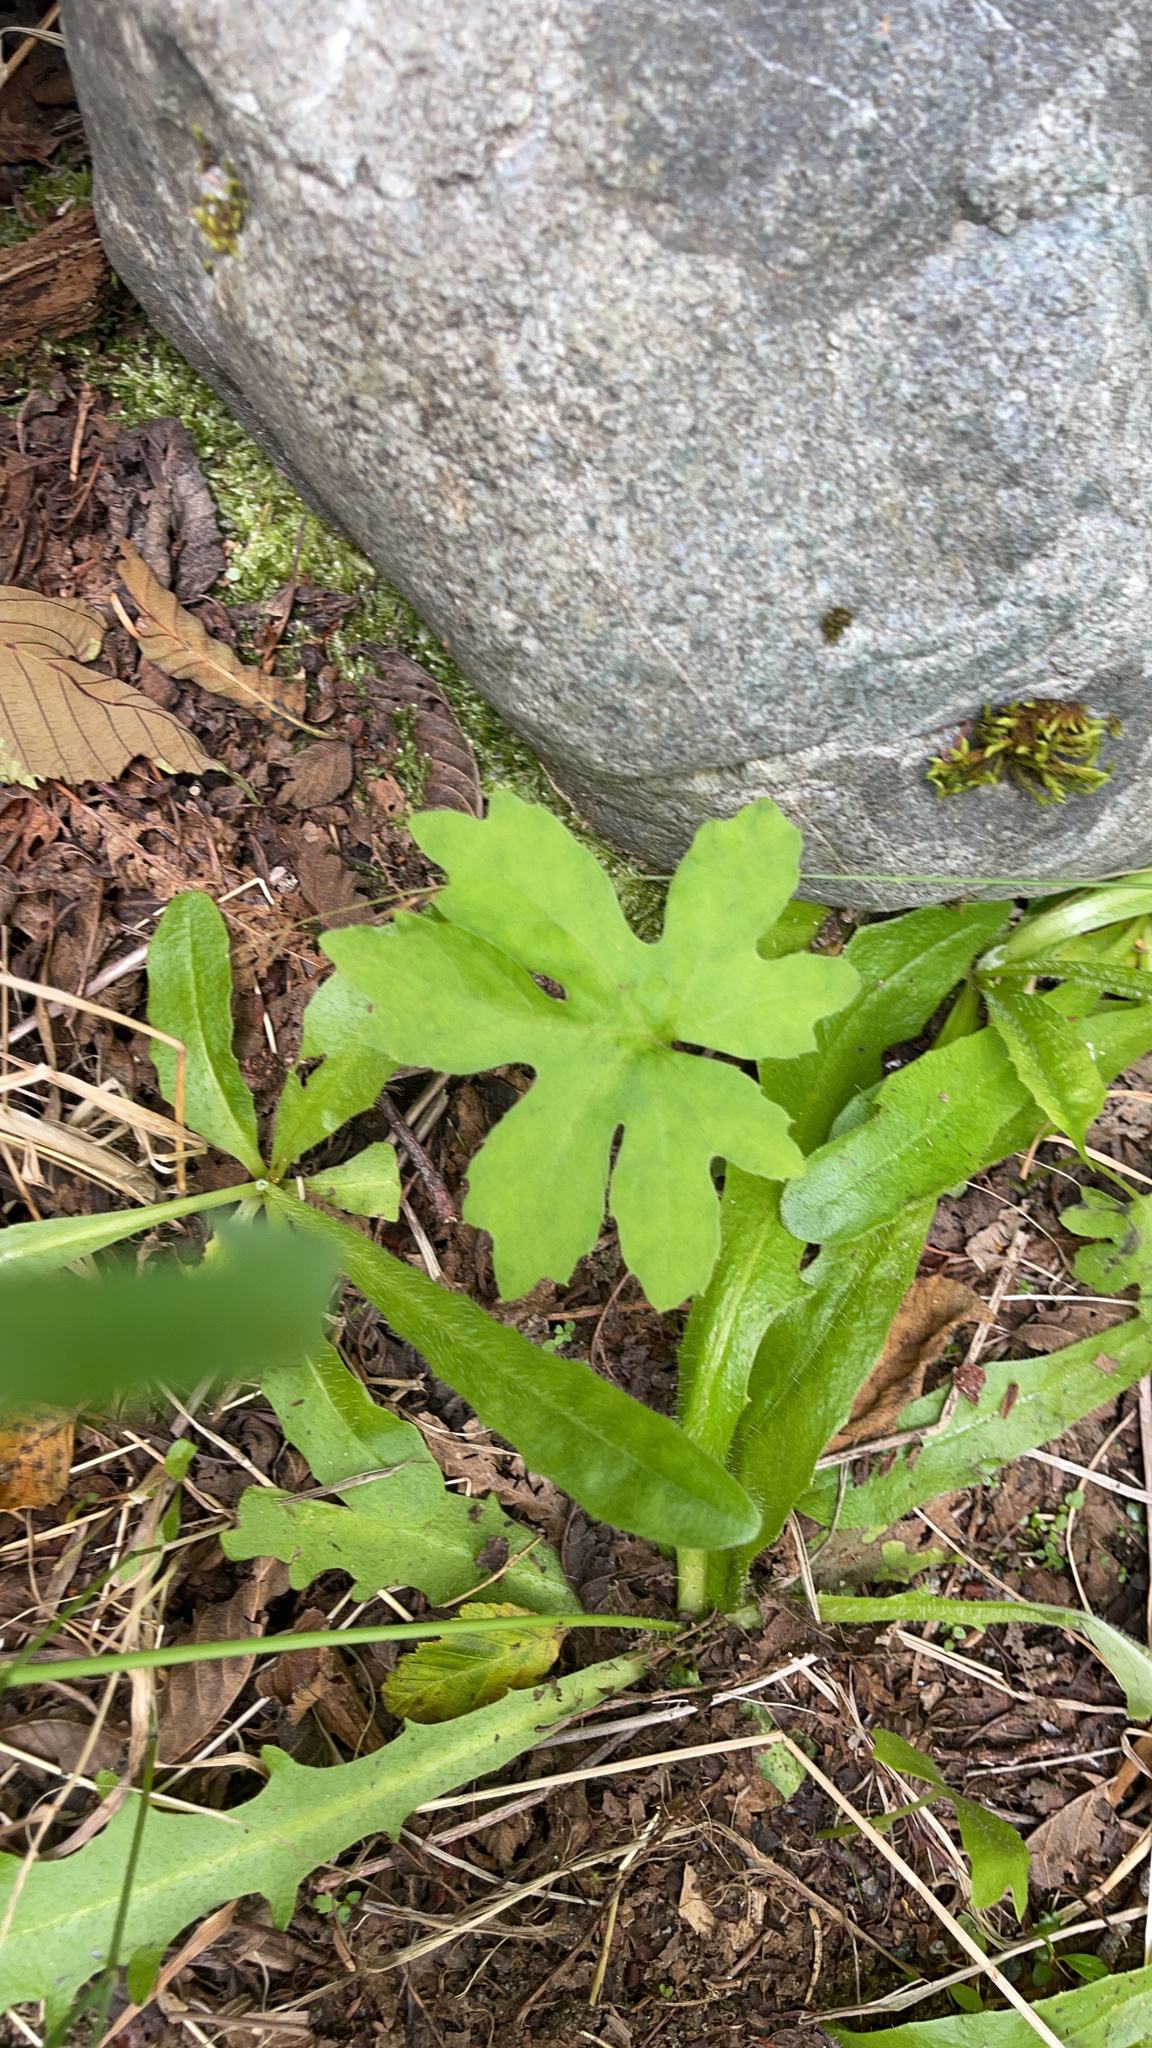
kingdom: Plantae
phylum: Tracheophyta
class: Magnoliopsida
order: Asterales
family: Asteraceae
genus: Petasites
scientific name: Petasites frigidus
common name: Arctic butterbur
